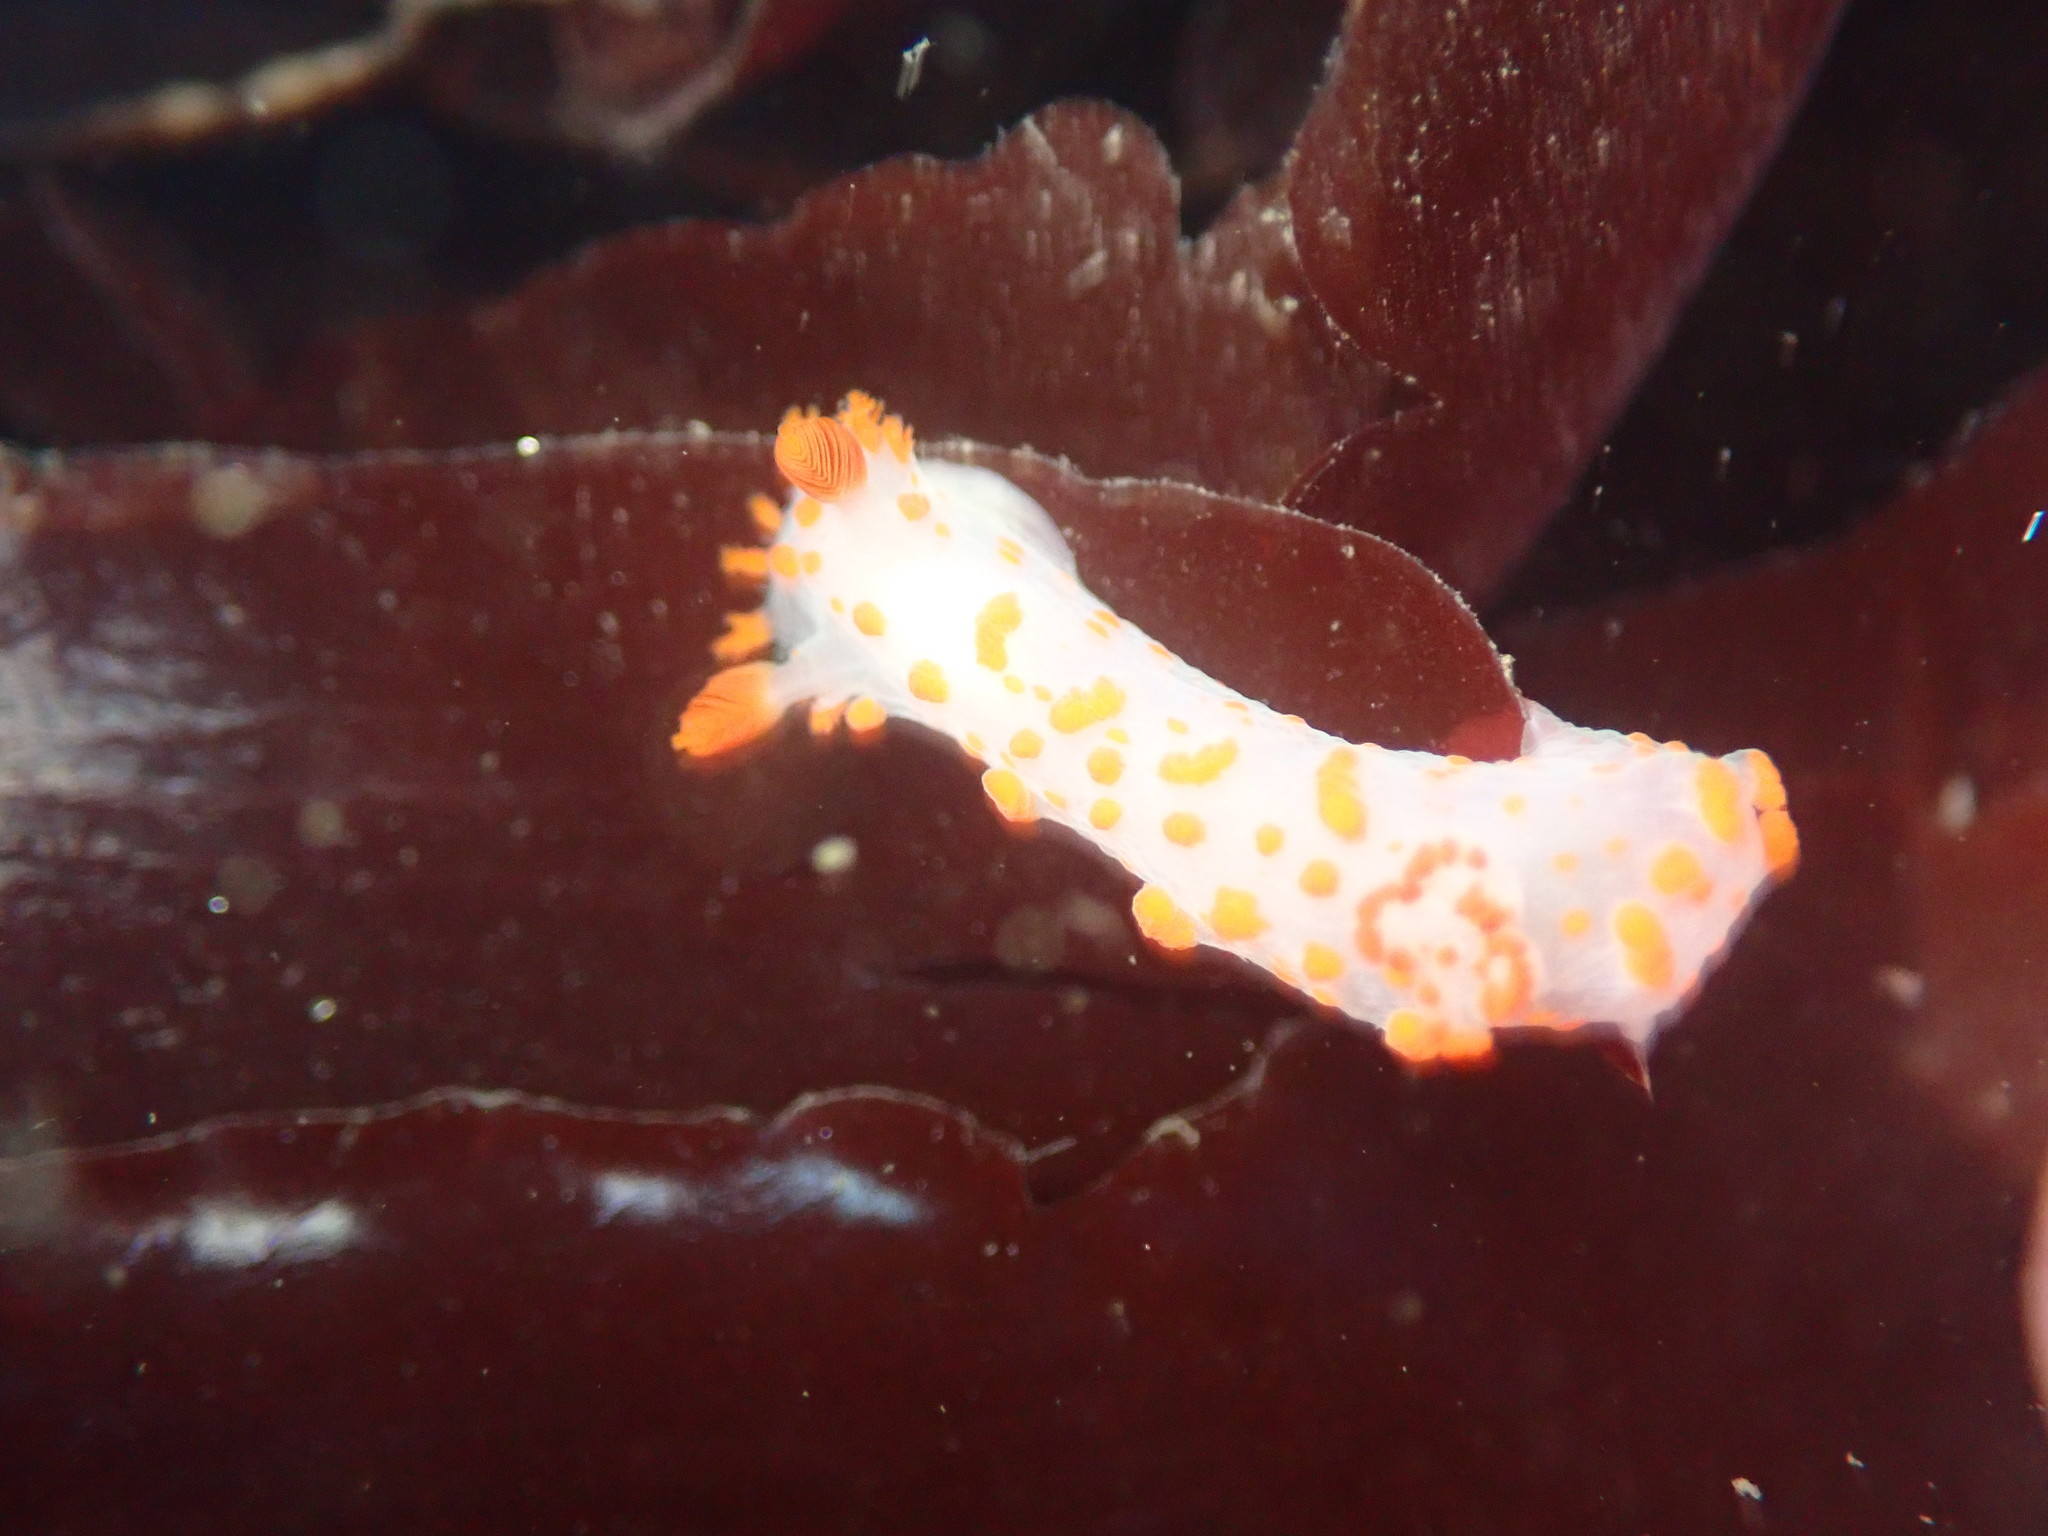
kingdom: Animalia
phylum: Mollusca
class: Gastropoda
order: Nudibranchia
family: Polyceridae
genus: Triopha
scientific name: Triopha catalinae
